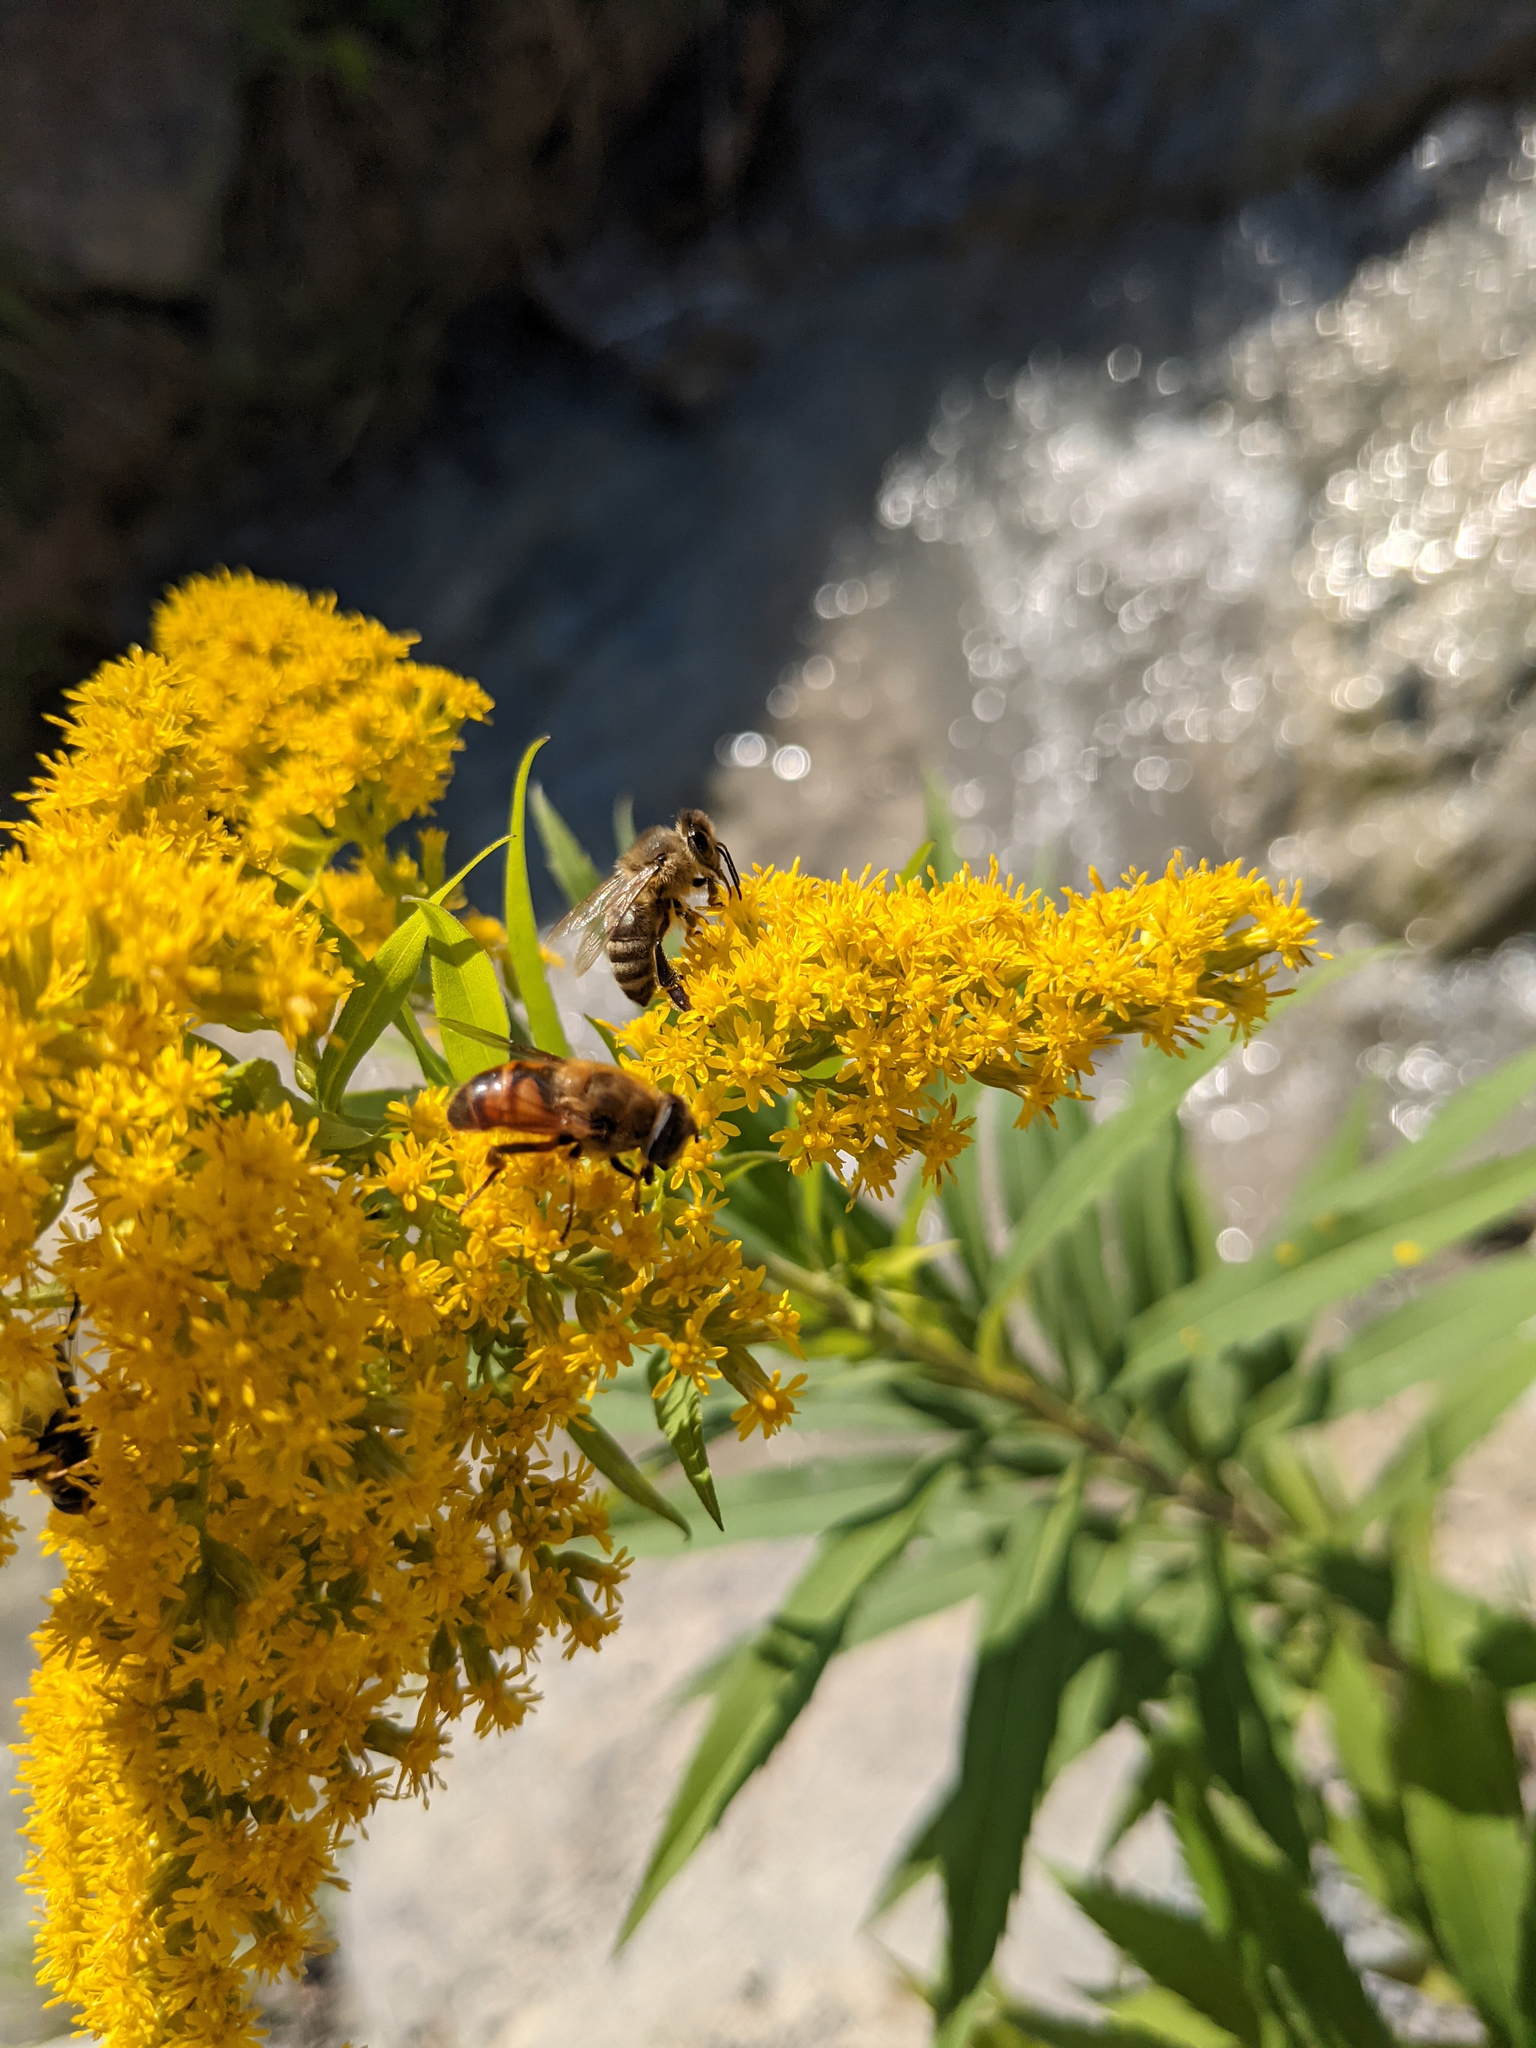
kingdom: Animalia
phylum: Arthropoda
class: Insecta
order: Hymenoptera
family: Apidae
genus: Apis
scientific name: Apis mellifera
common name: Honey bee
